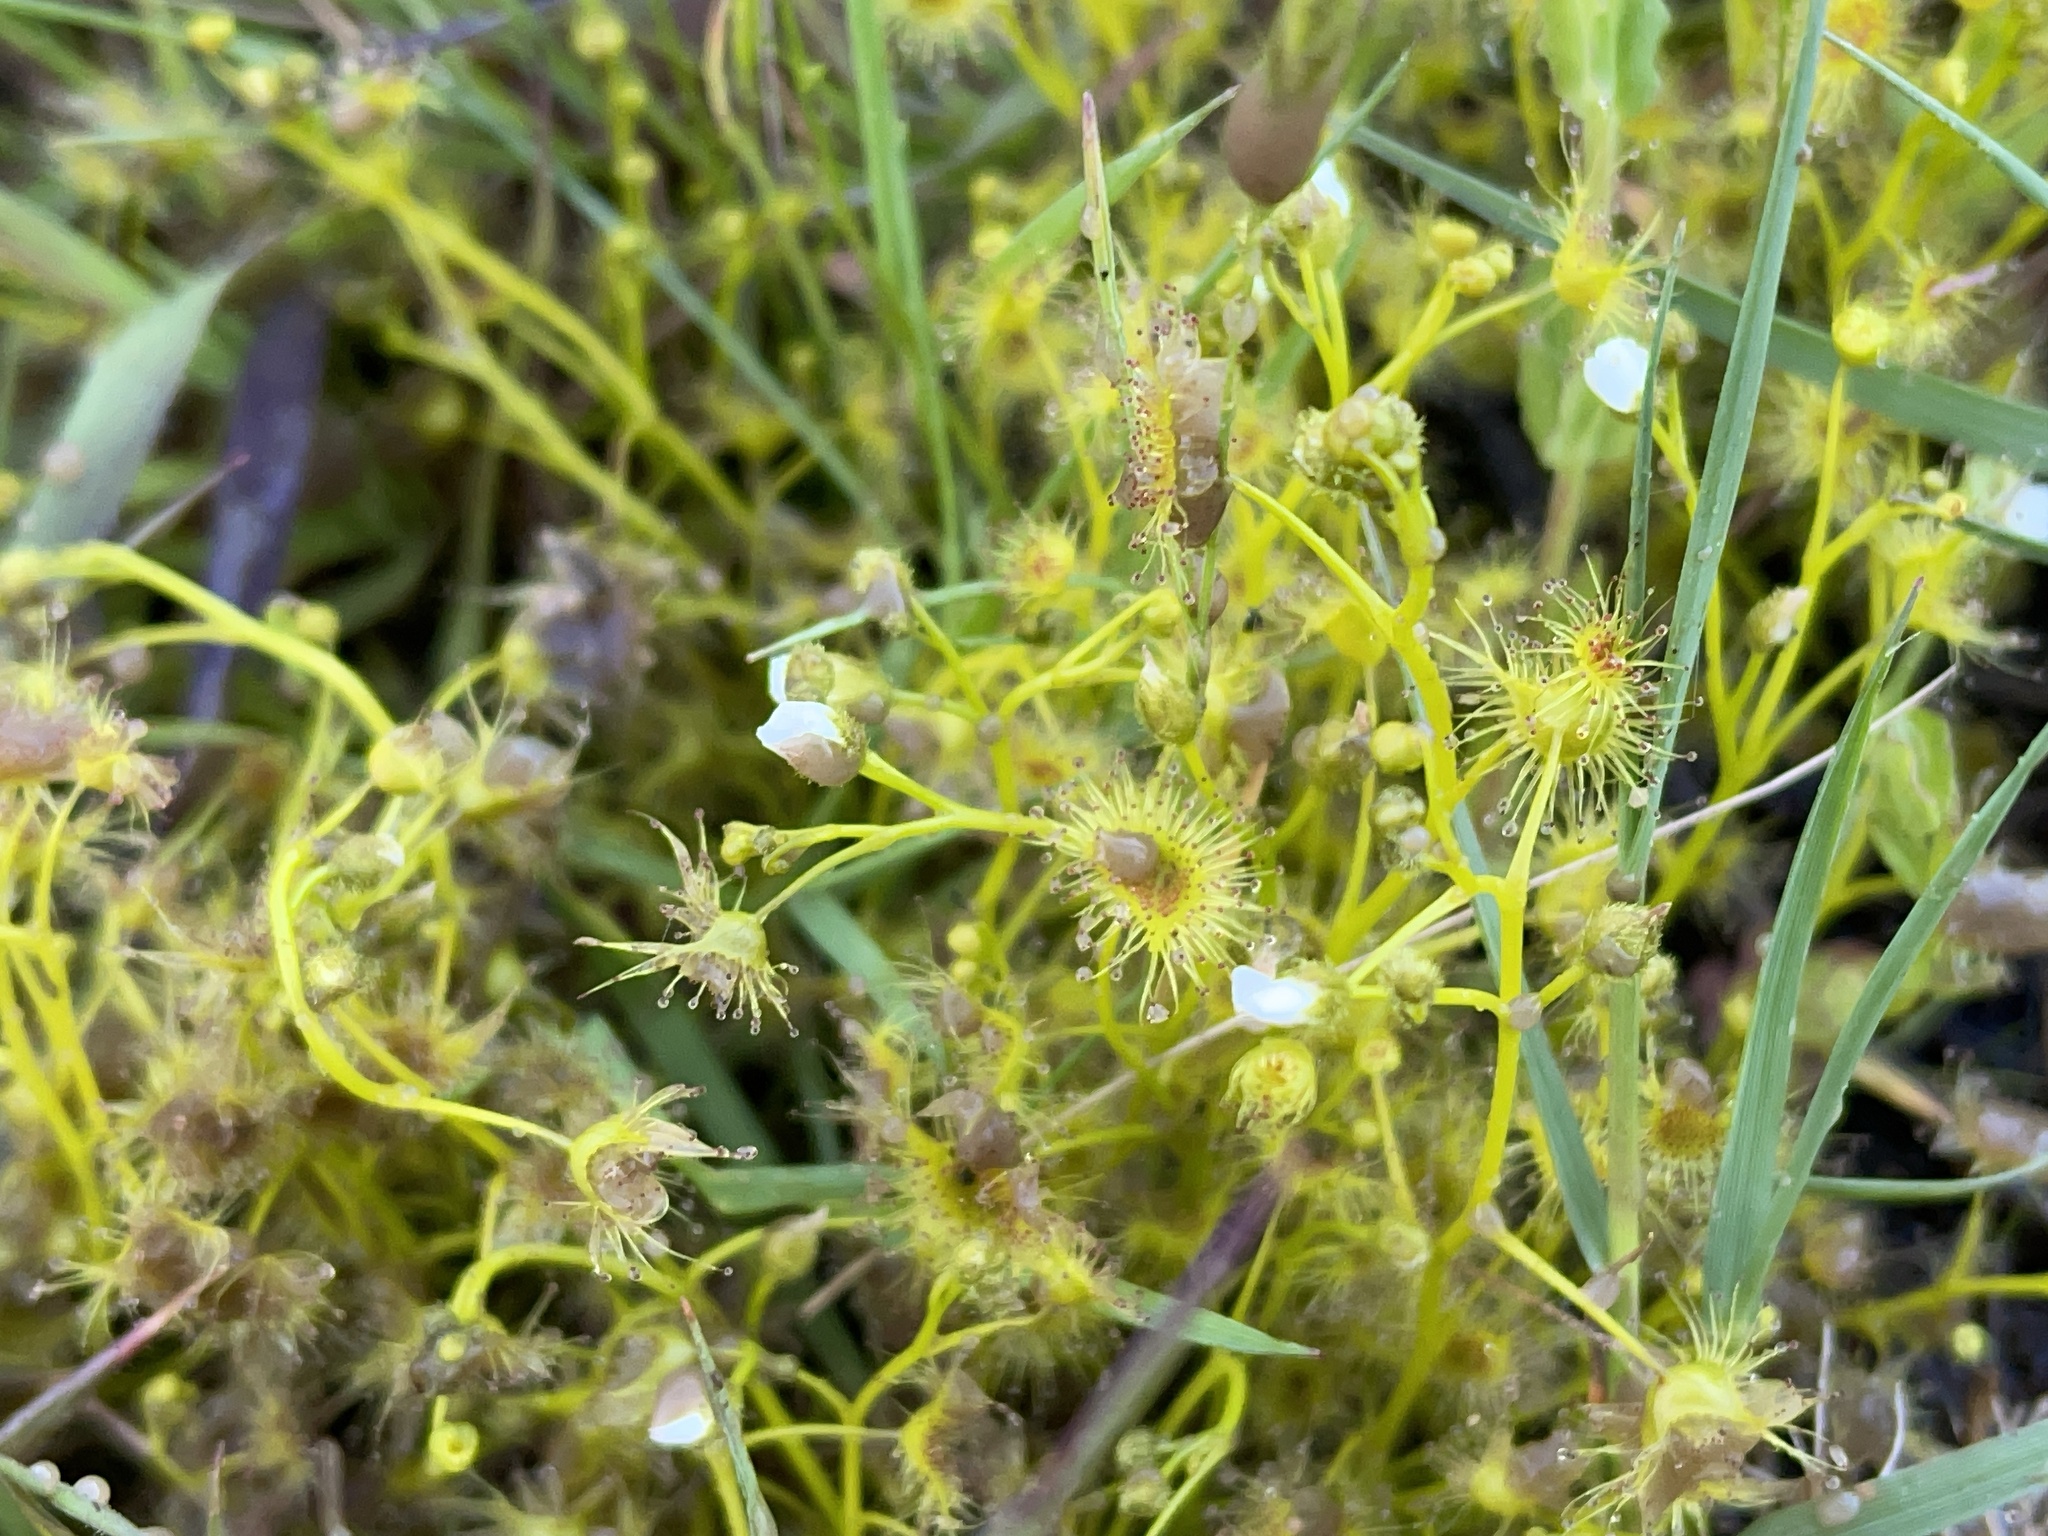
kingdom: Plantae
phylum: Tracheophyta
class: Magnoliopsida
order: Caryophyllales
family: Droseraceae
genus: Drosera
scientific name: Drosera hookeri
